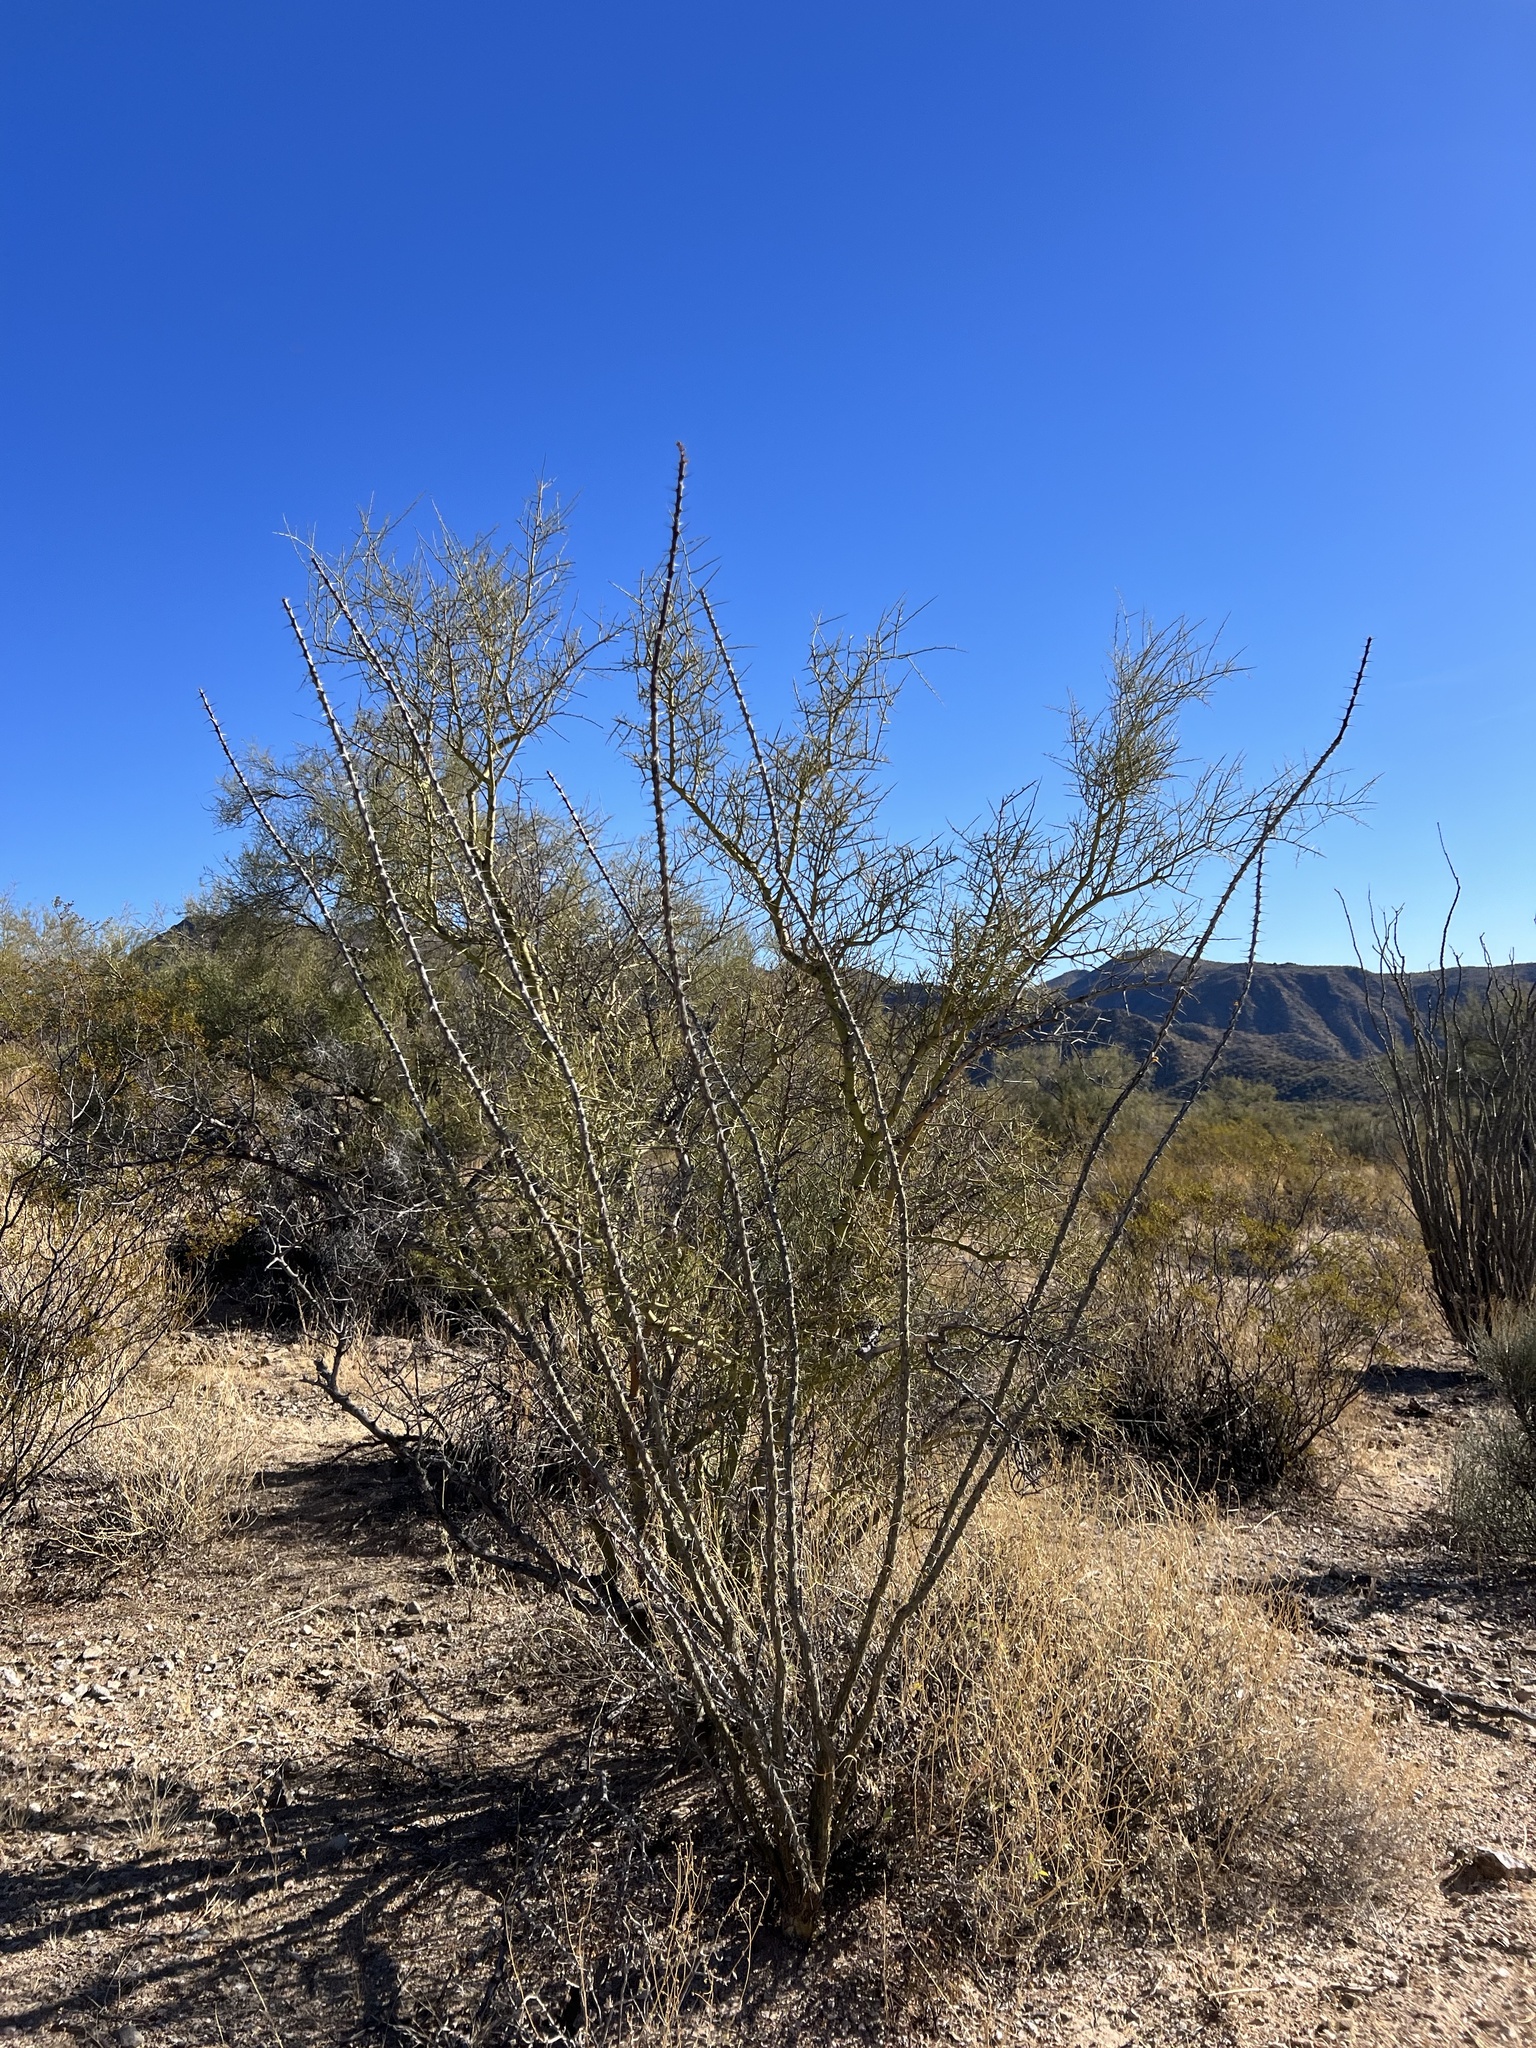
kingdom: Plantae
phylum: Tracheophyta
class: Magnoliopsida
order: Ericales
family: Fouquieriaceae
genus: Fouquieria
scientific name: Fouquieria splendens
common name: Vine-cactus
